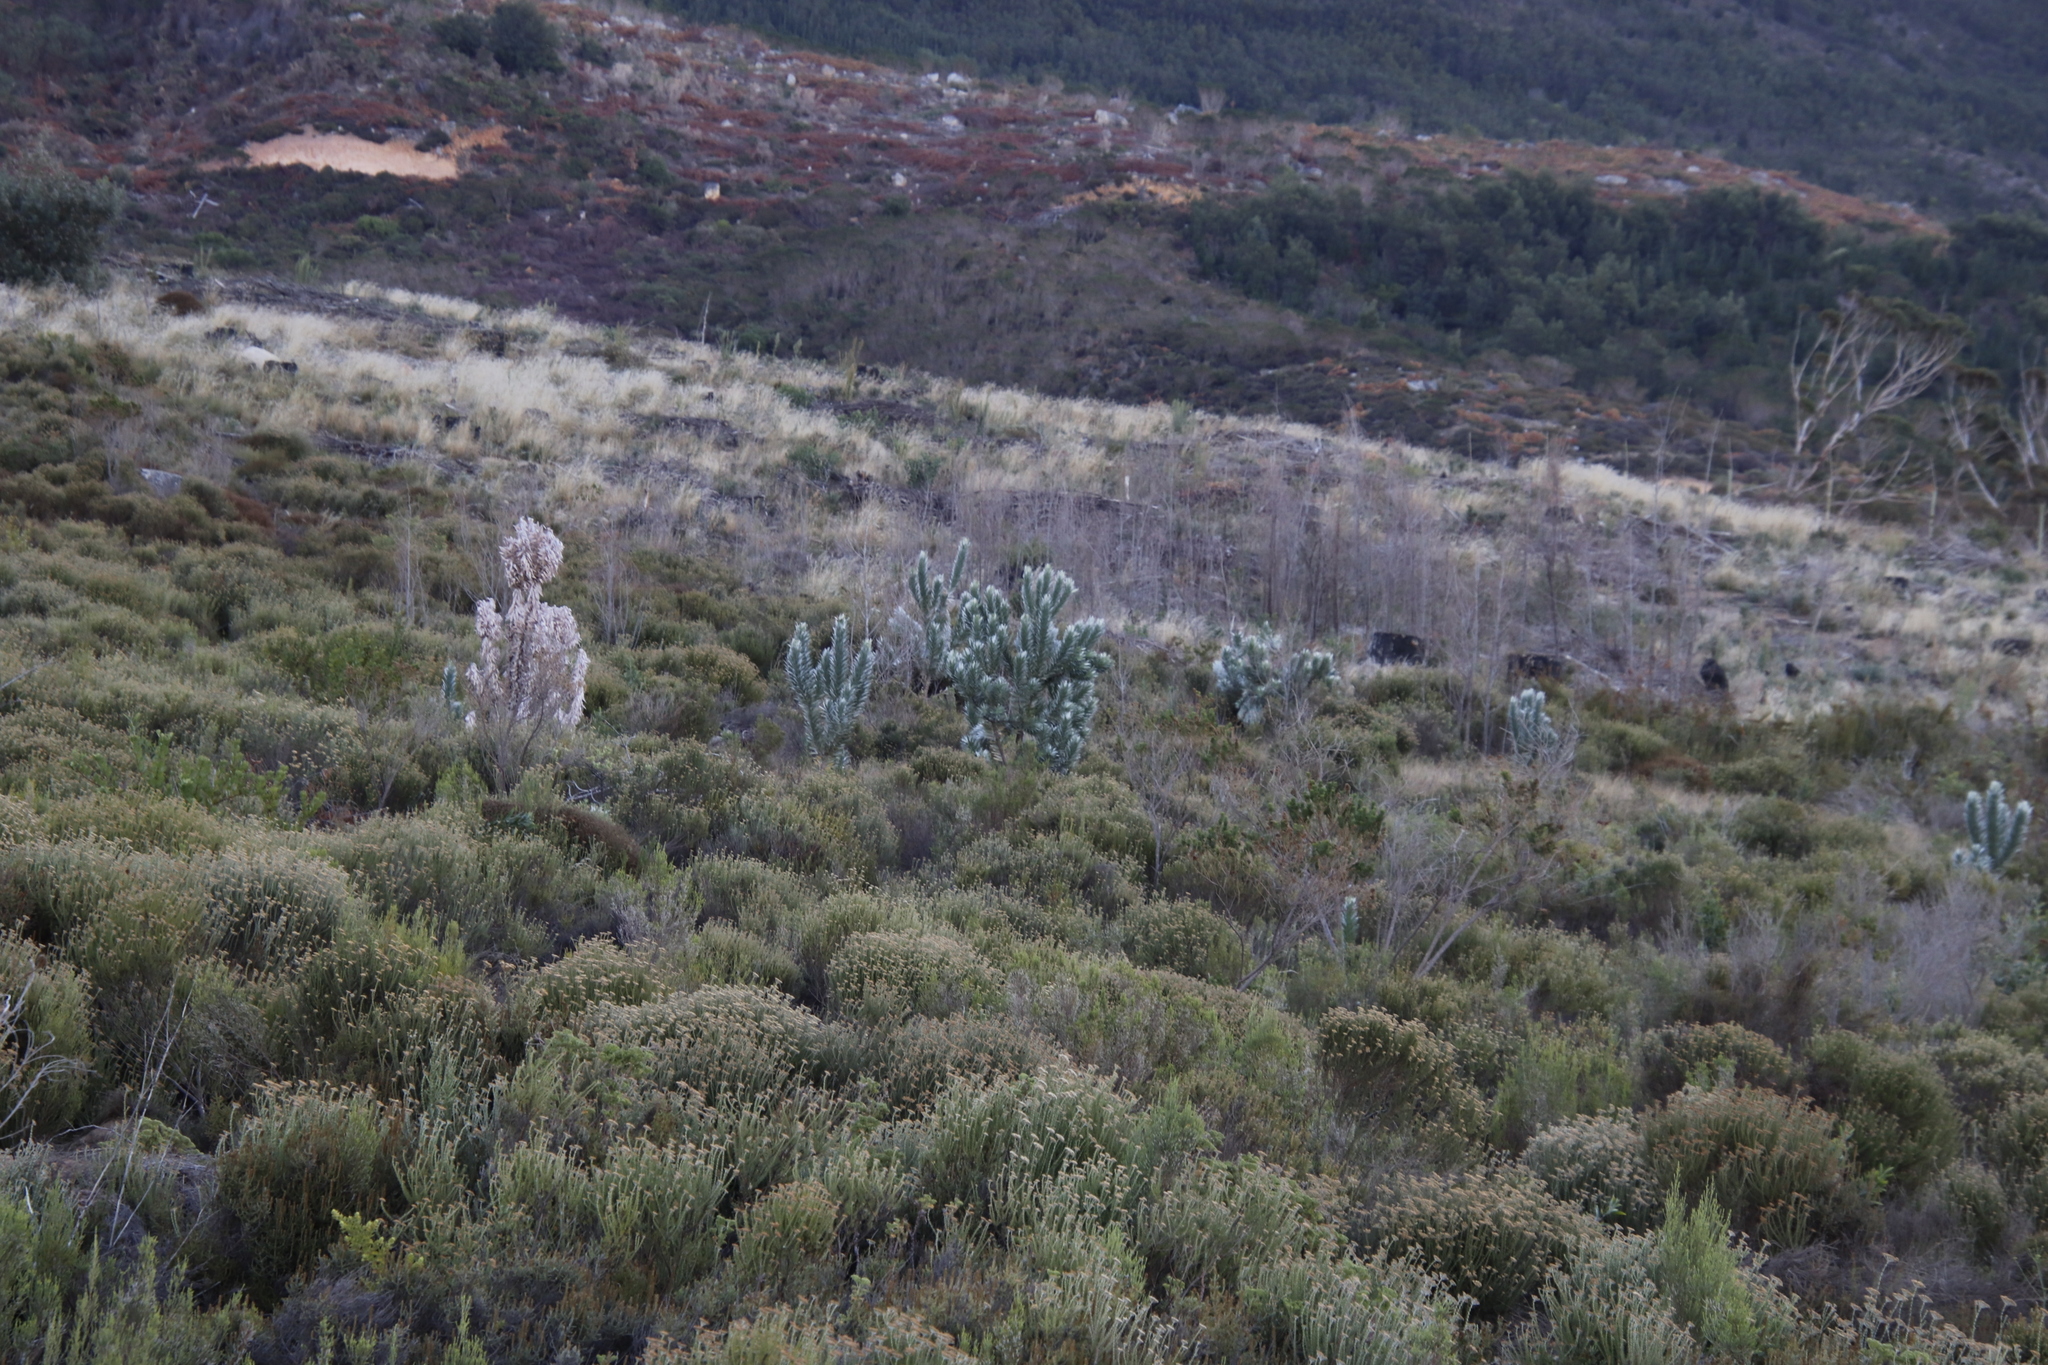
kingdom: Plantae
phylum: Tracheophyta
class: Magnoliopsida
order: Proteales
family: Proteaceae
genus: Leucadendron
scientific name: Leucadendron argenteum
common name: Cape silver tree
